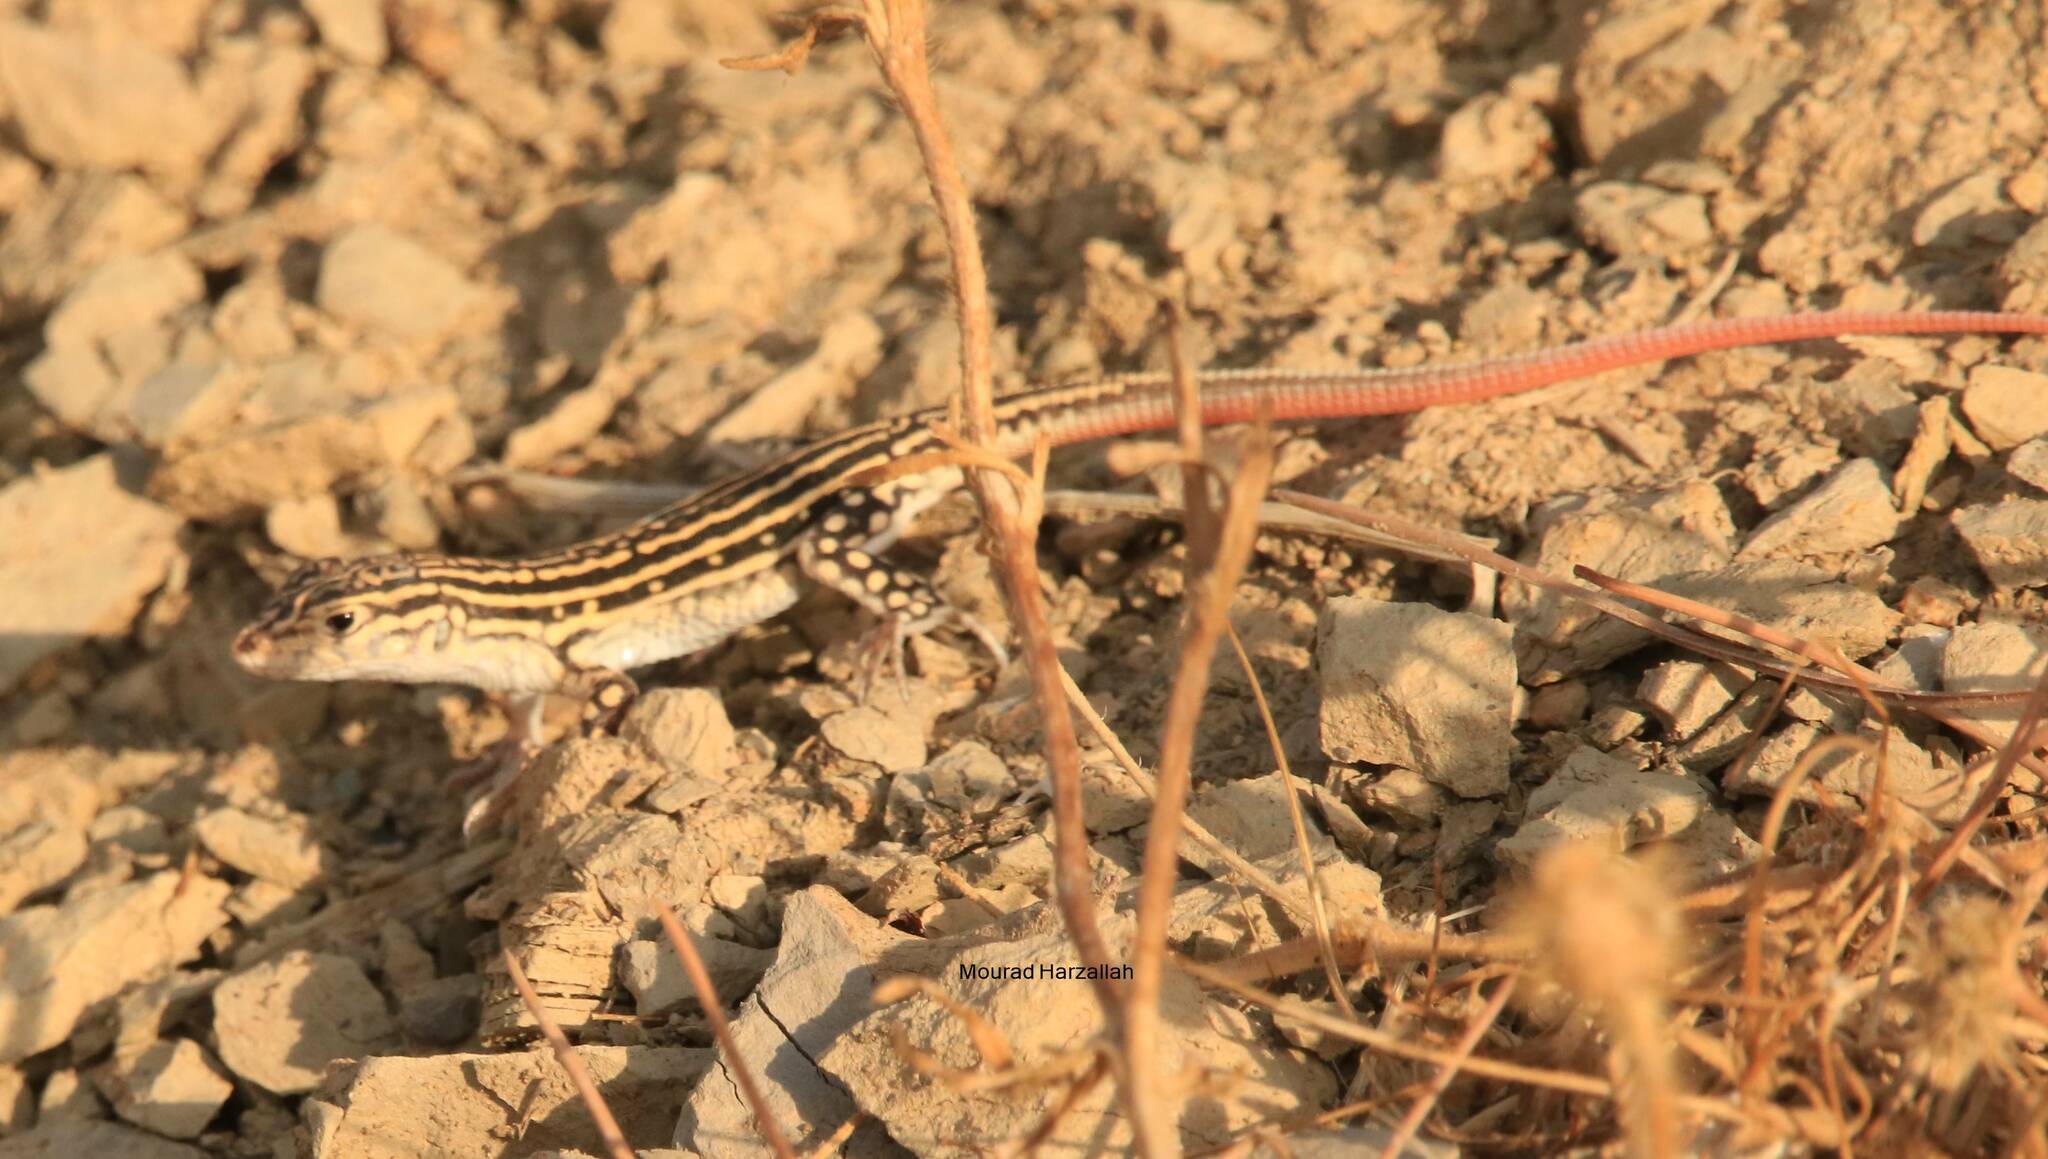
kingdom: Animalia
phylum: Chordata
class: Squamata
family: Lacertidae
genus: Acanthodactylus
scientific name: Acanthodactylus erythrurus
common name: Spiny-footed lizard
